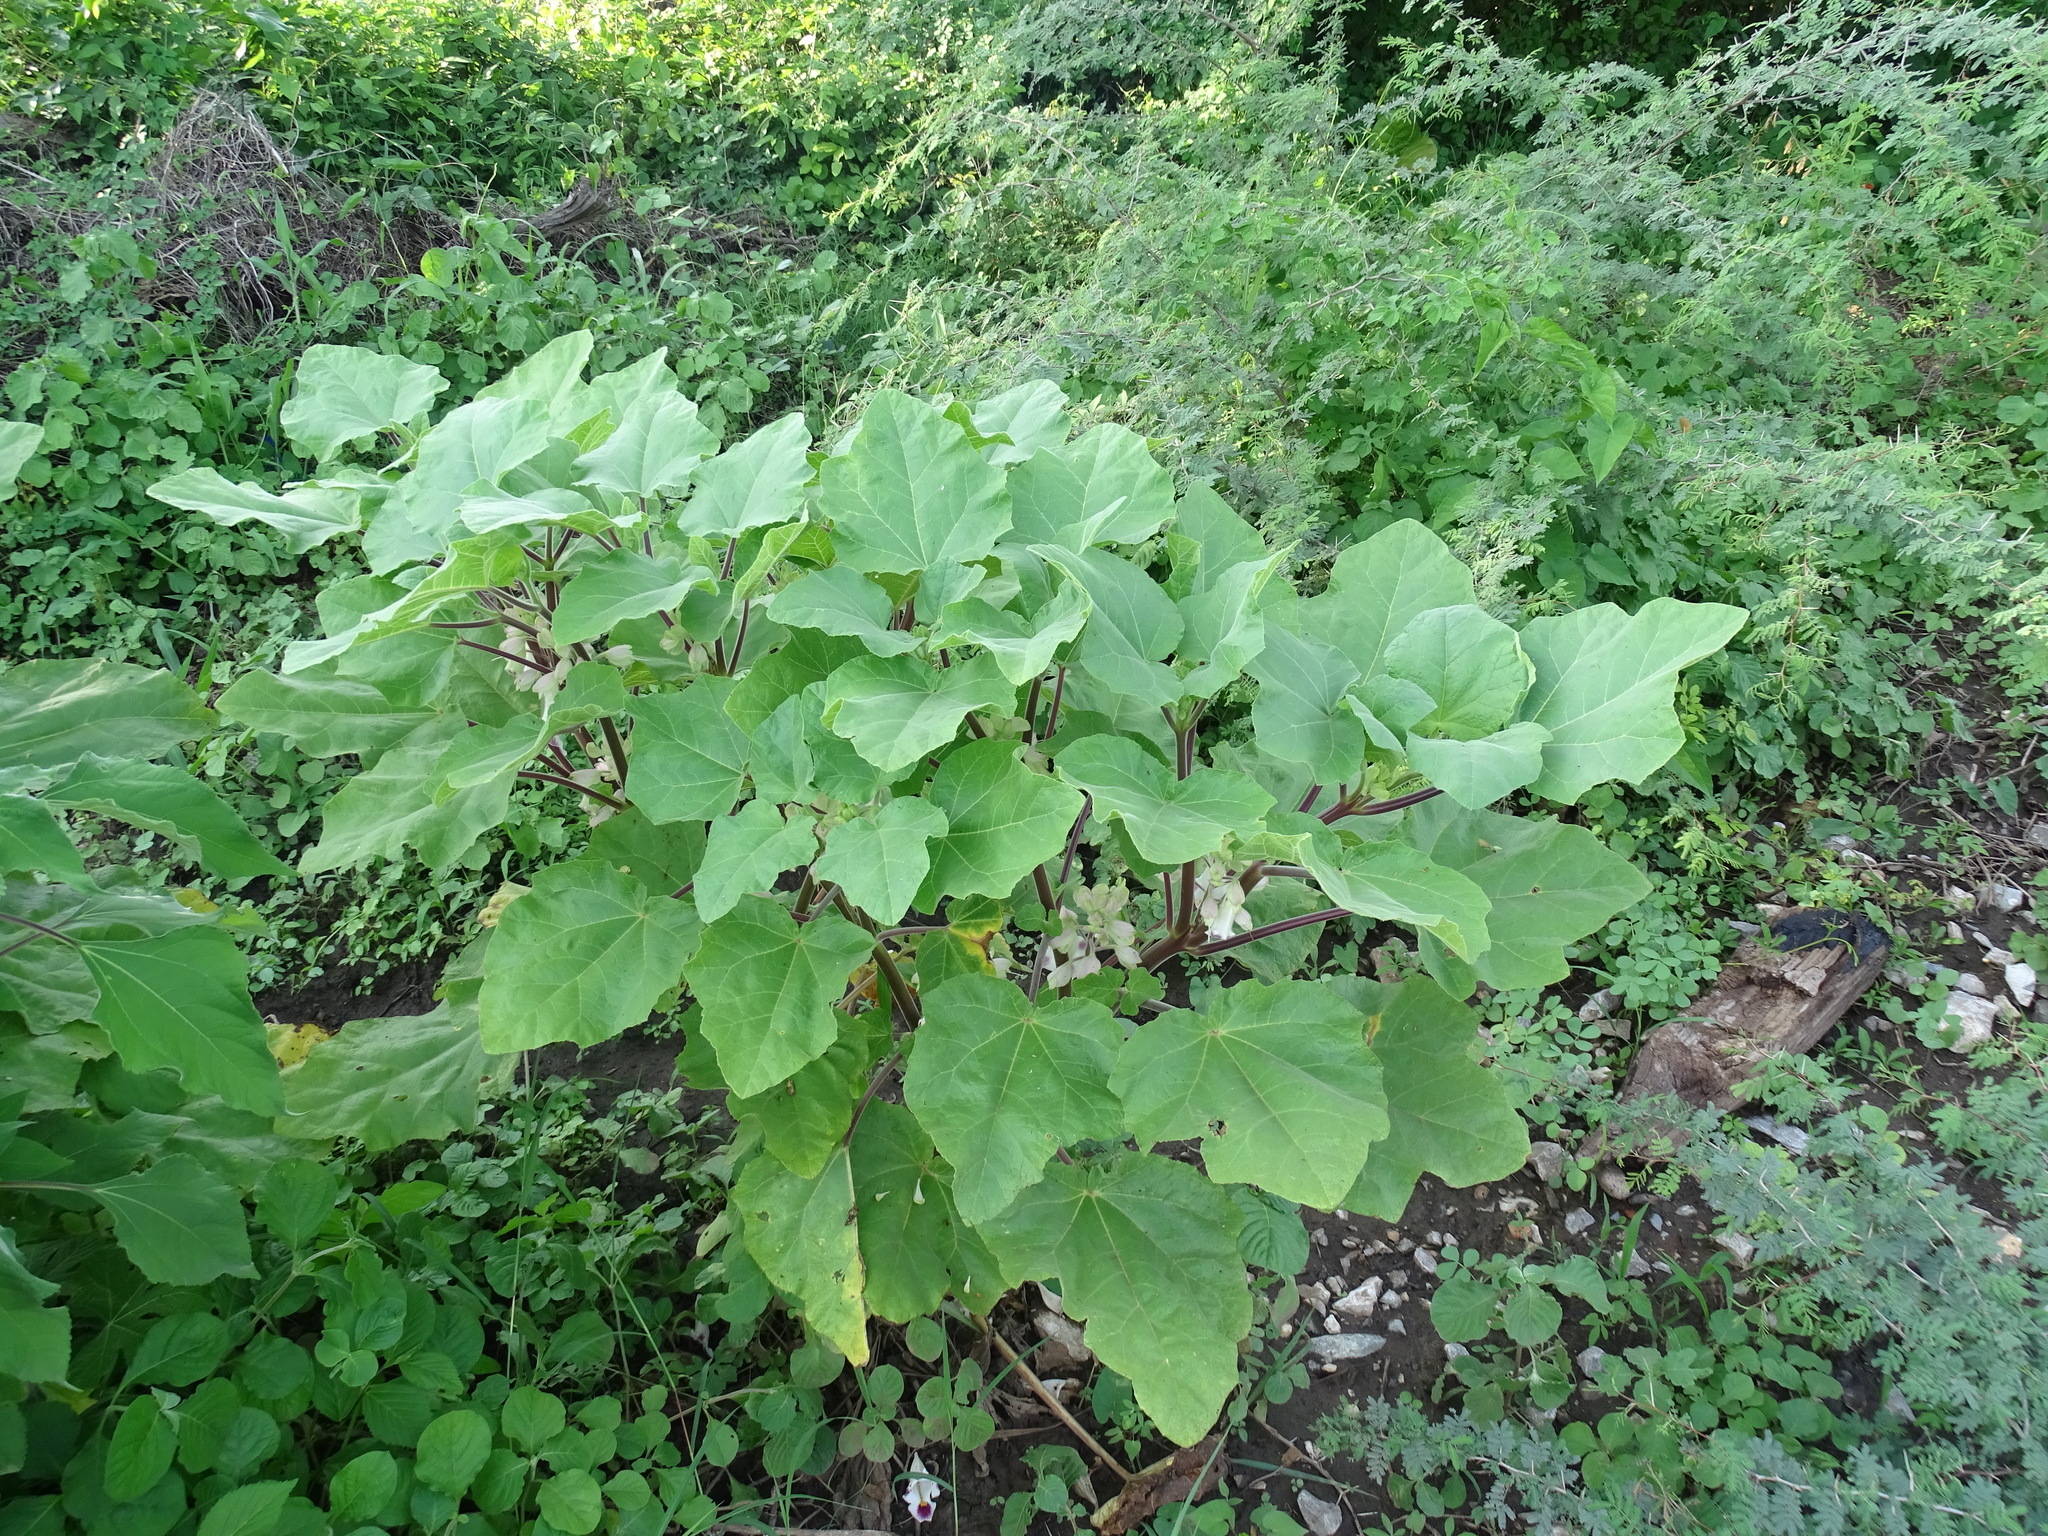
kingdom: Plantae
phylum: Tracheophyta
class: Magnoliopsida
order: Lamiales
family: Martyniaceae
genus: Martynia
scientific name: Martynia annua
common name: Tiger's-claw
